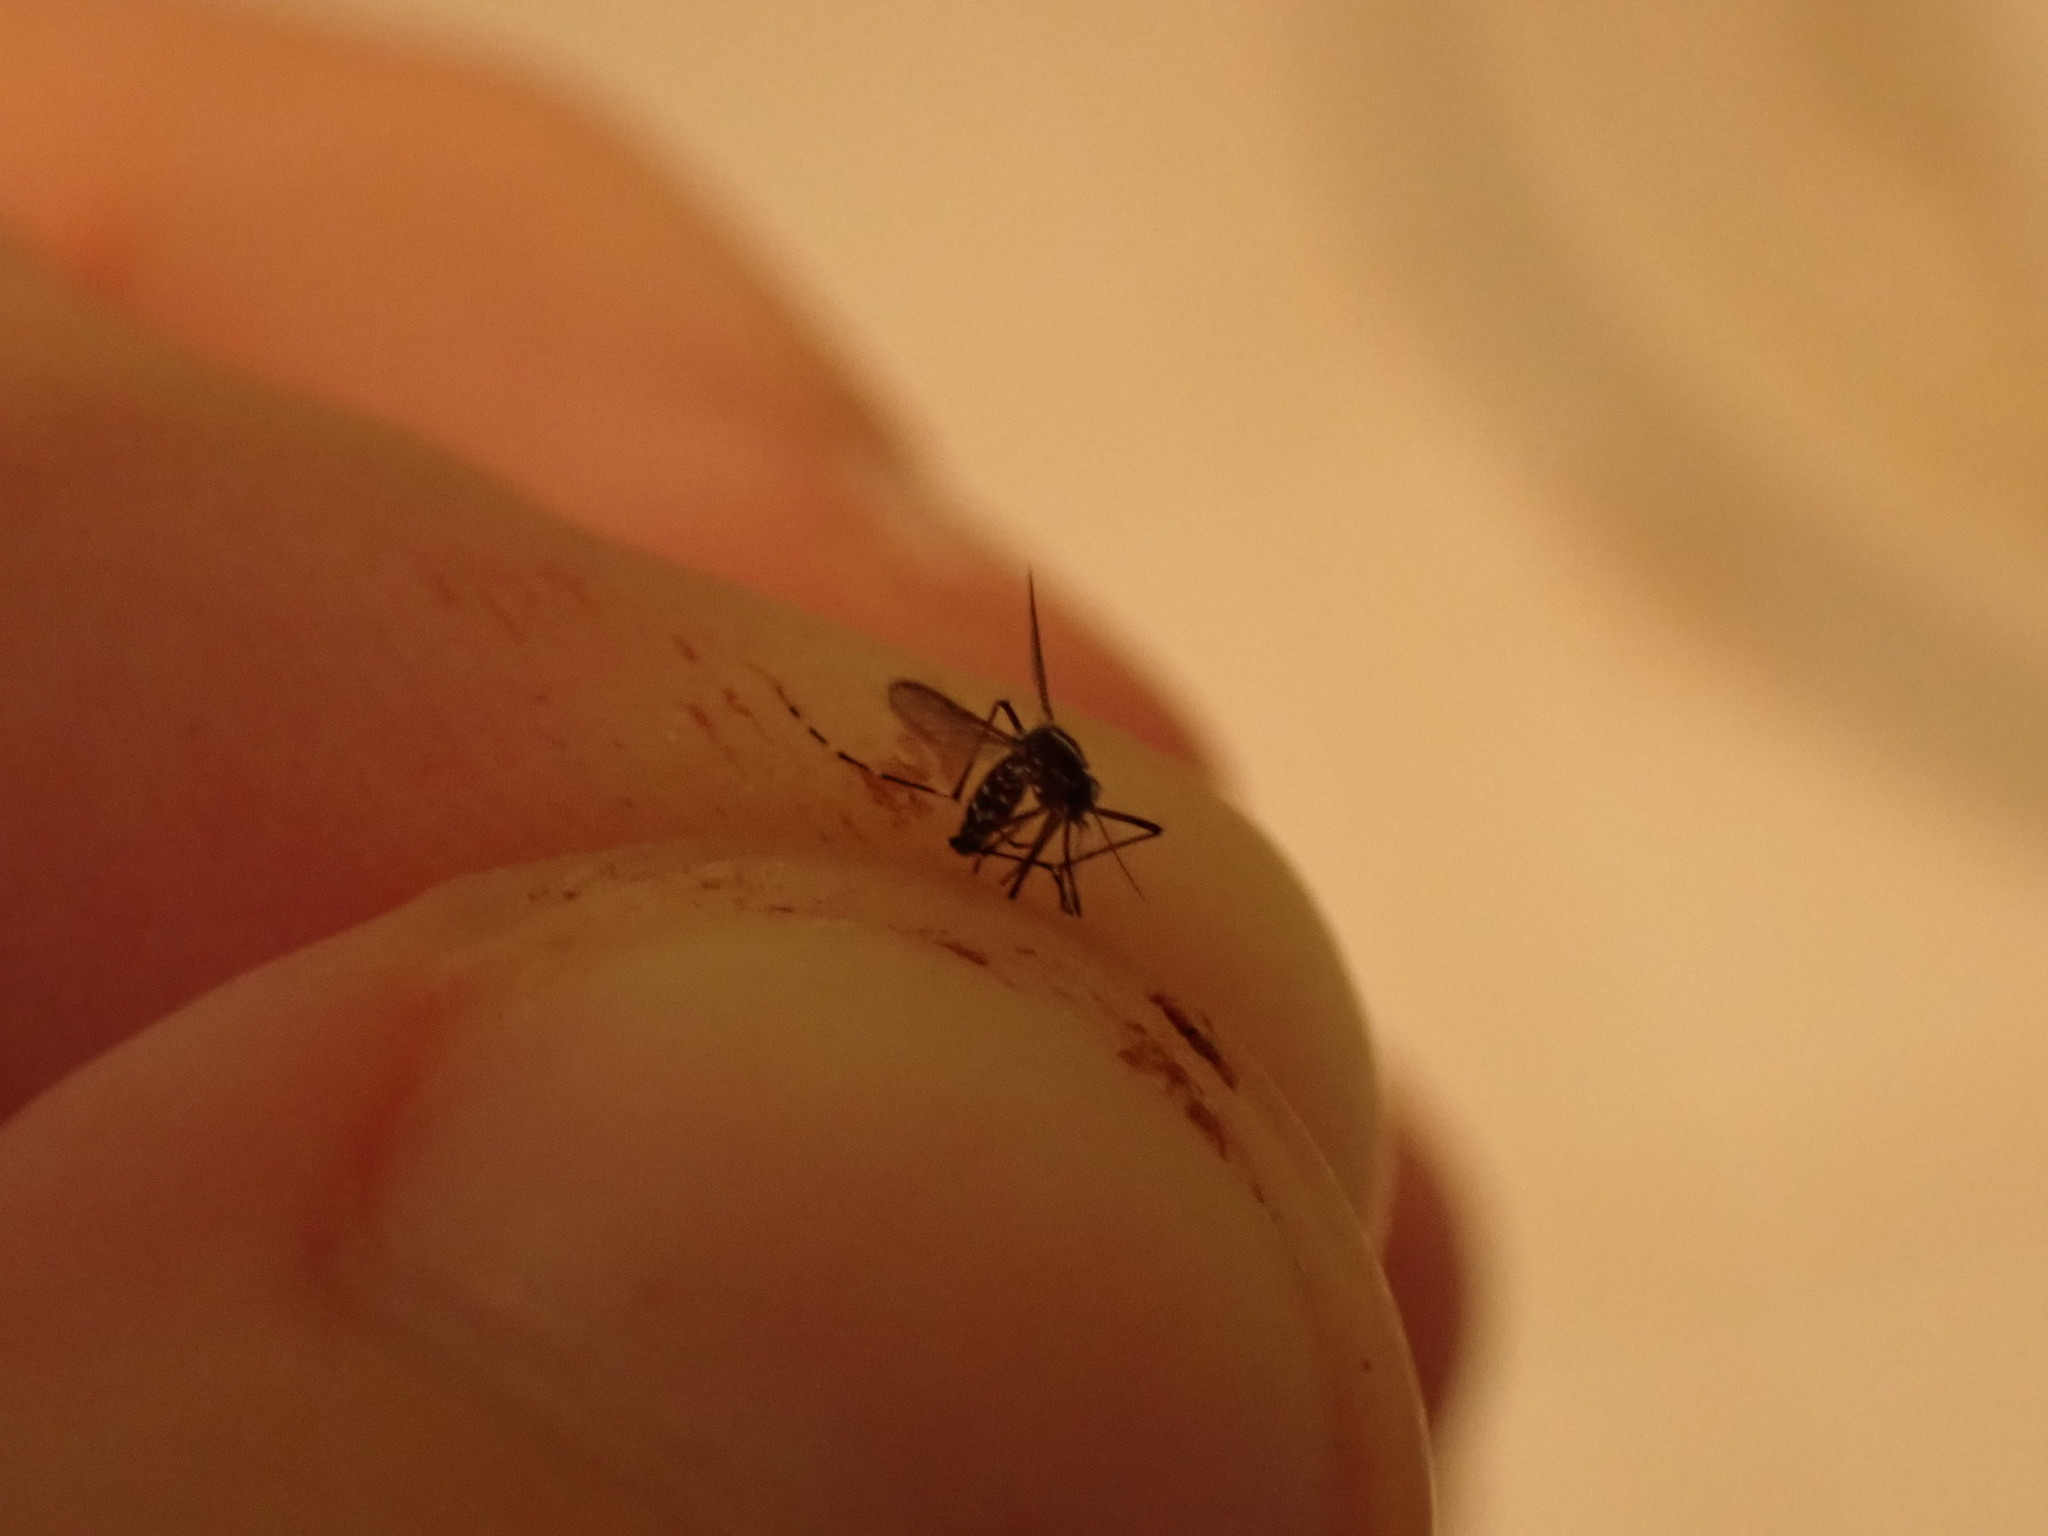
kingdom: Animalia
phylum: Arthropoda
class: Insecta
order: Diptera
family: Culicidae
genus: Aedes
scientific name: Aedes albopictus
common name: Tiger mosquito
